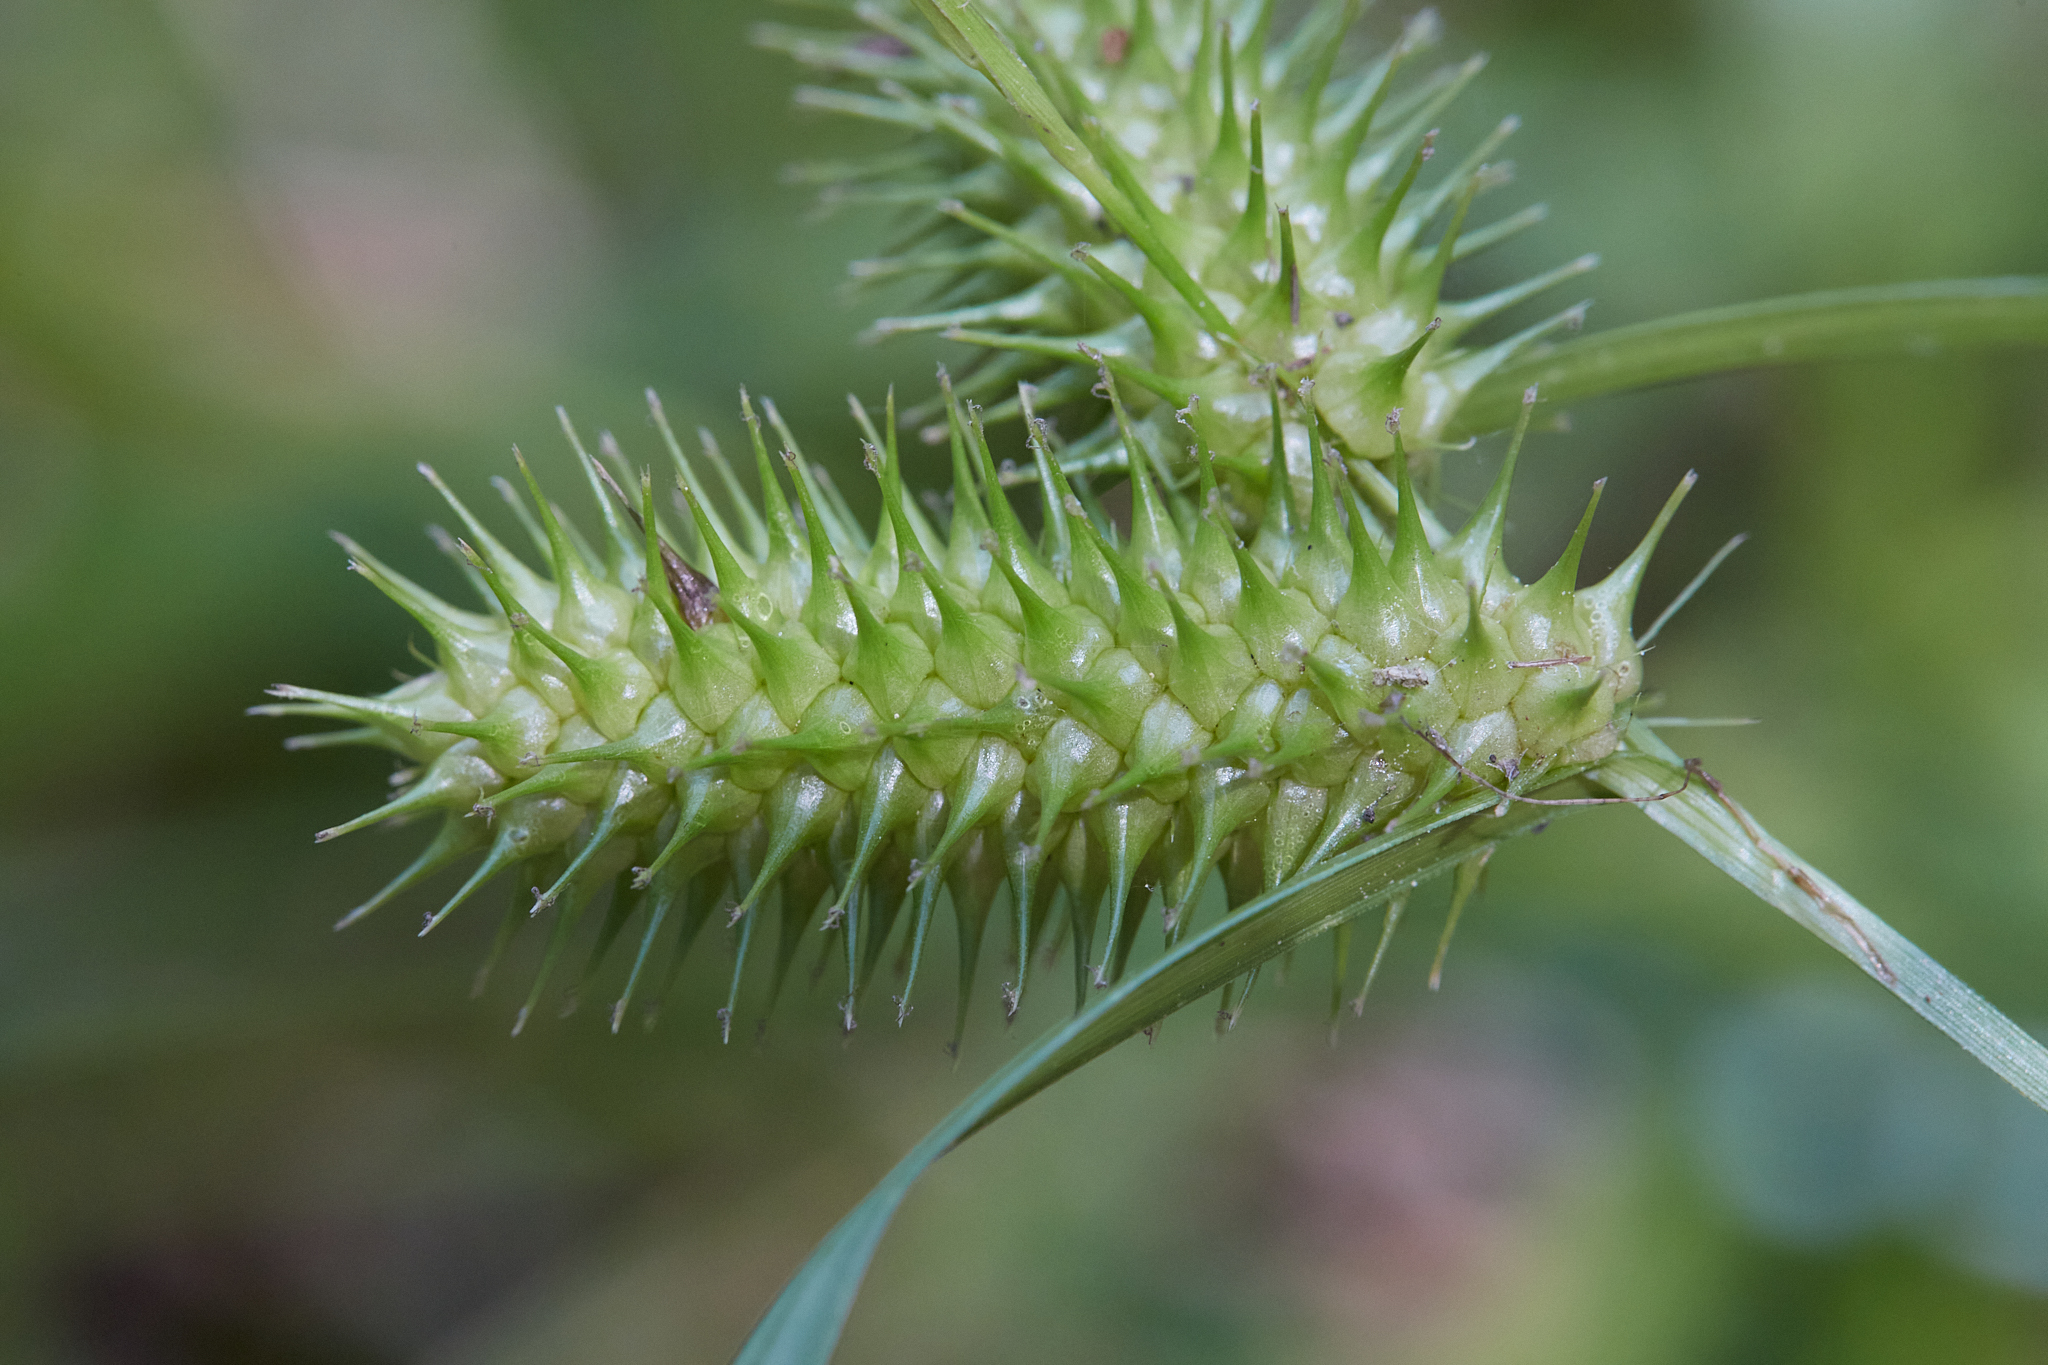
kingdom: Plantae
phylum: Tracheophyta
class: Liliopsida
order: Poales
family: Cyperaceae
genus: Carex
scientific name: Carex lurida
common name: Sallow sedge
